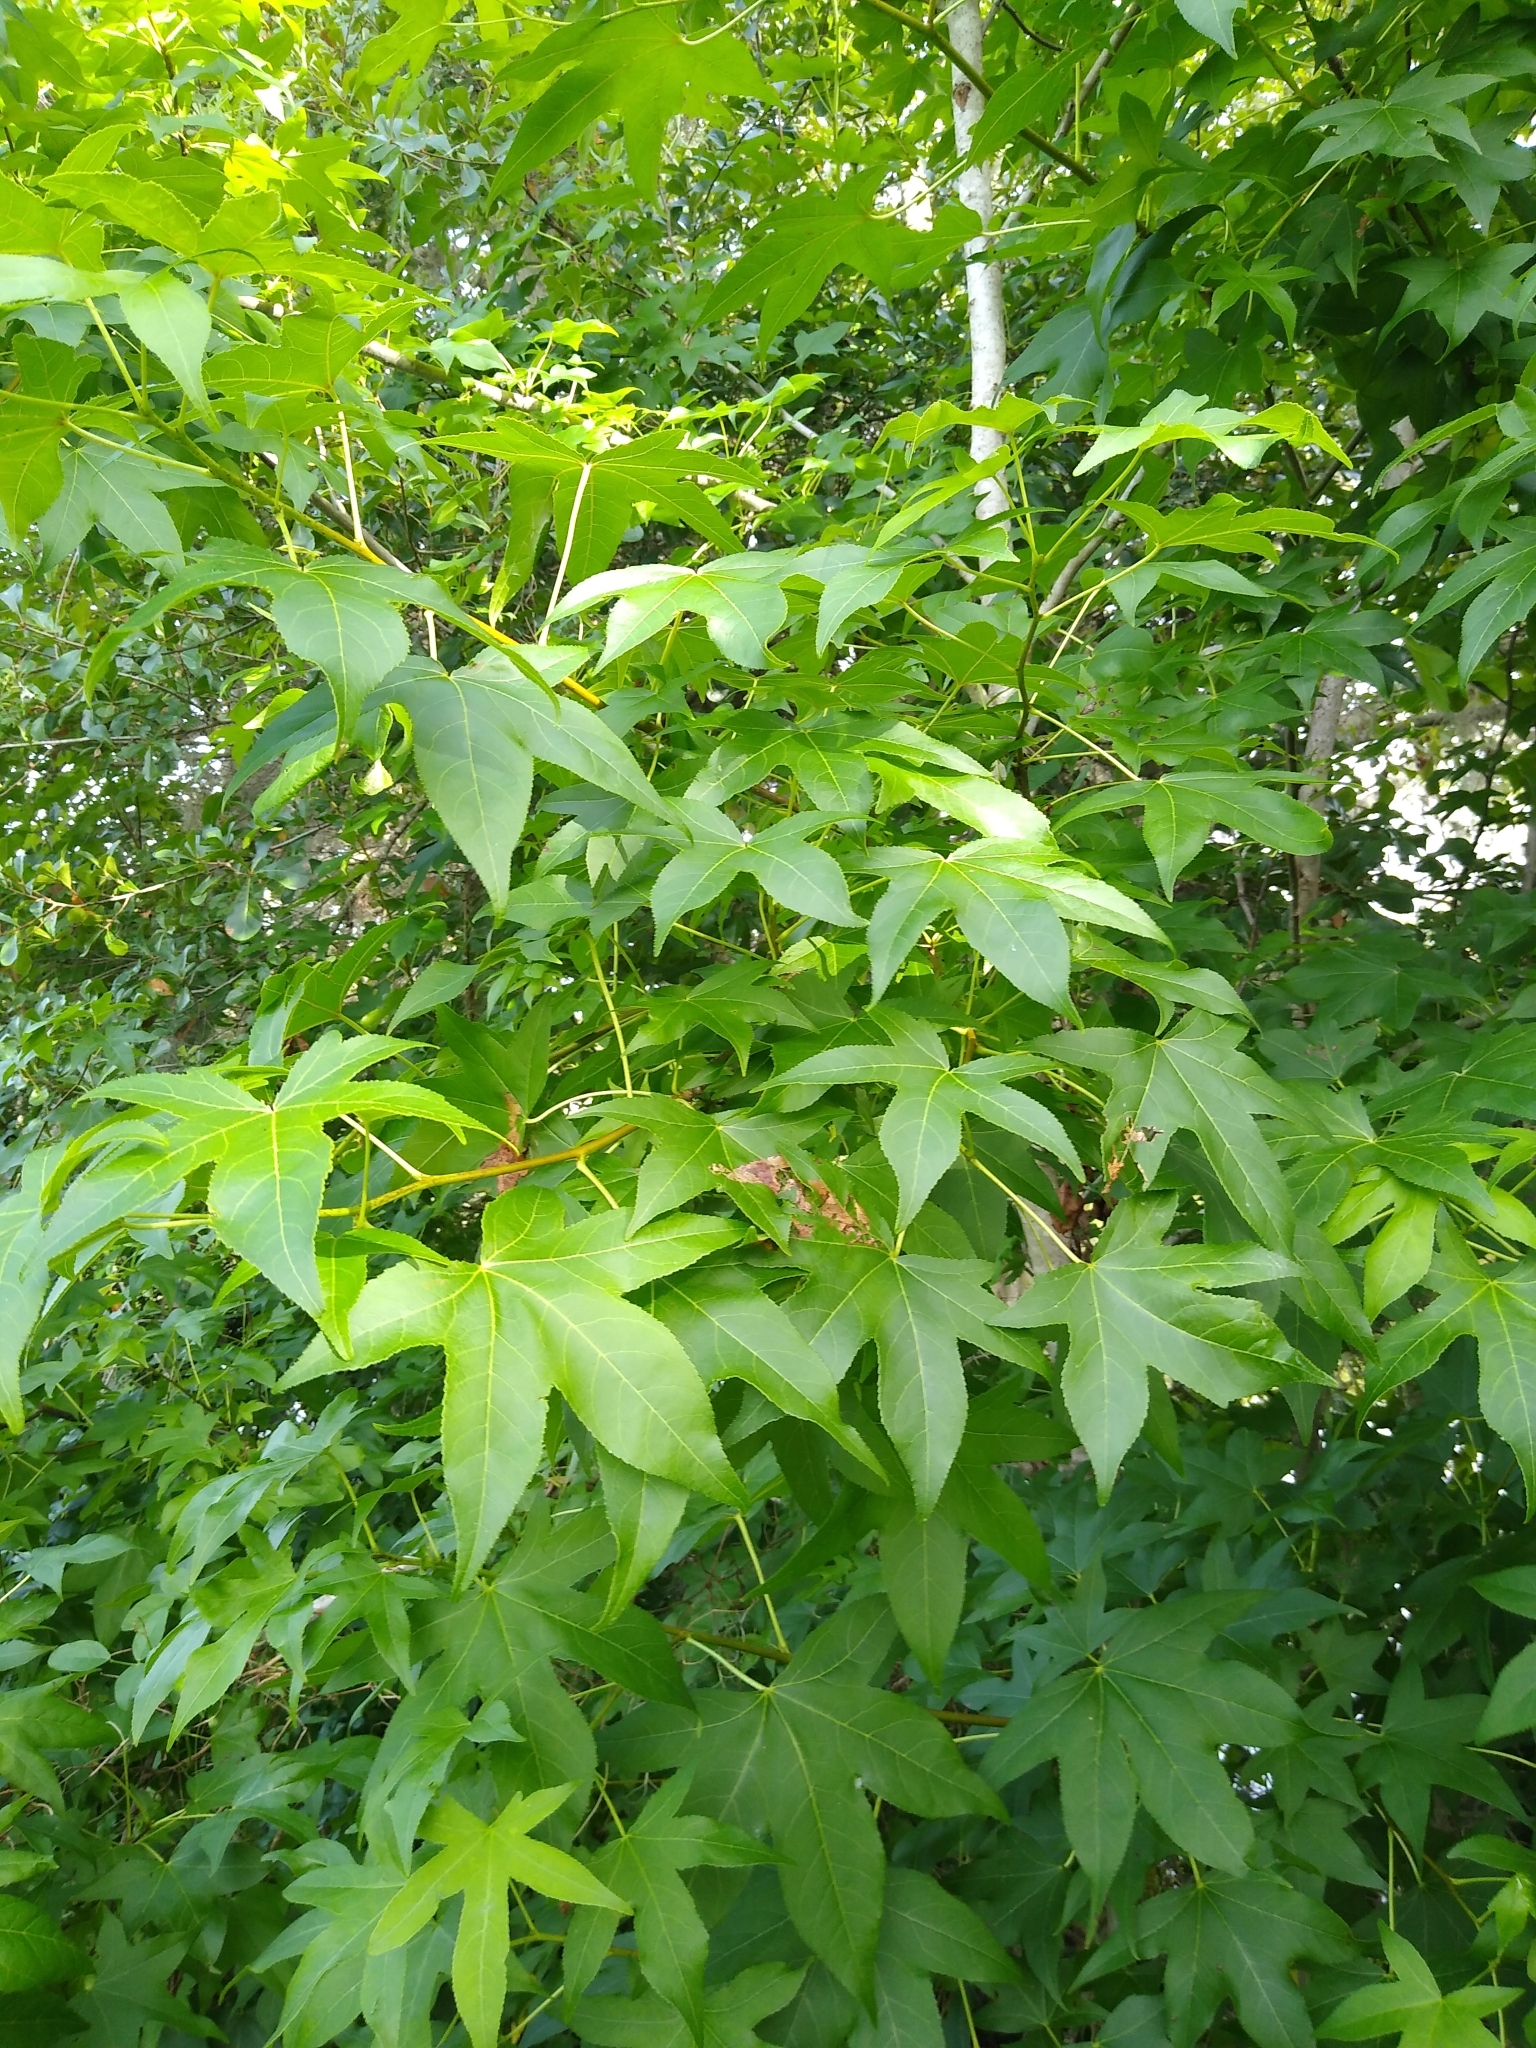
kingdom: Plantae
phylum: Tracheophyta
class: Magnoliopsida
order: Saxifragales
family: Altingiaceae
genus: Liquidambar
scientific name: Liquidambar styraciflua
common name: Sweet gum
